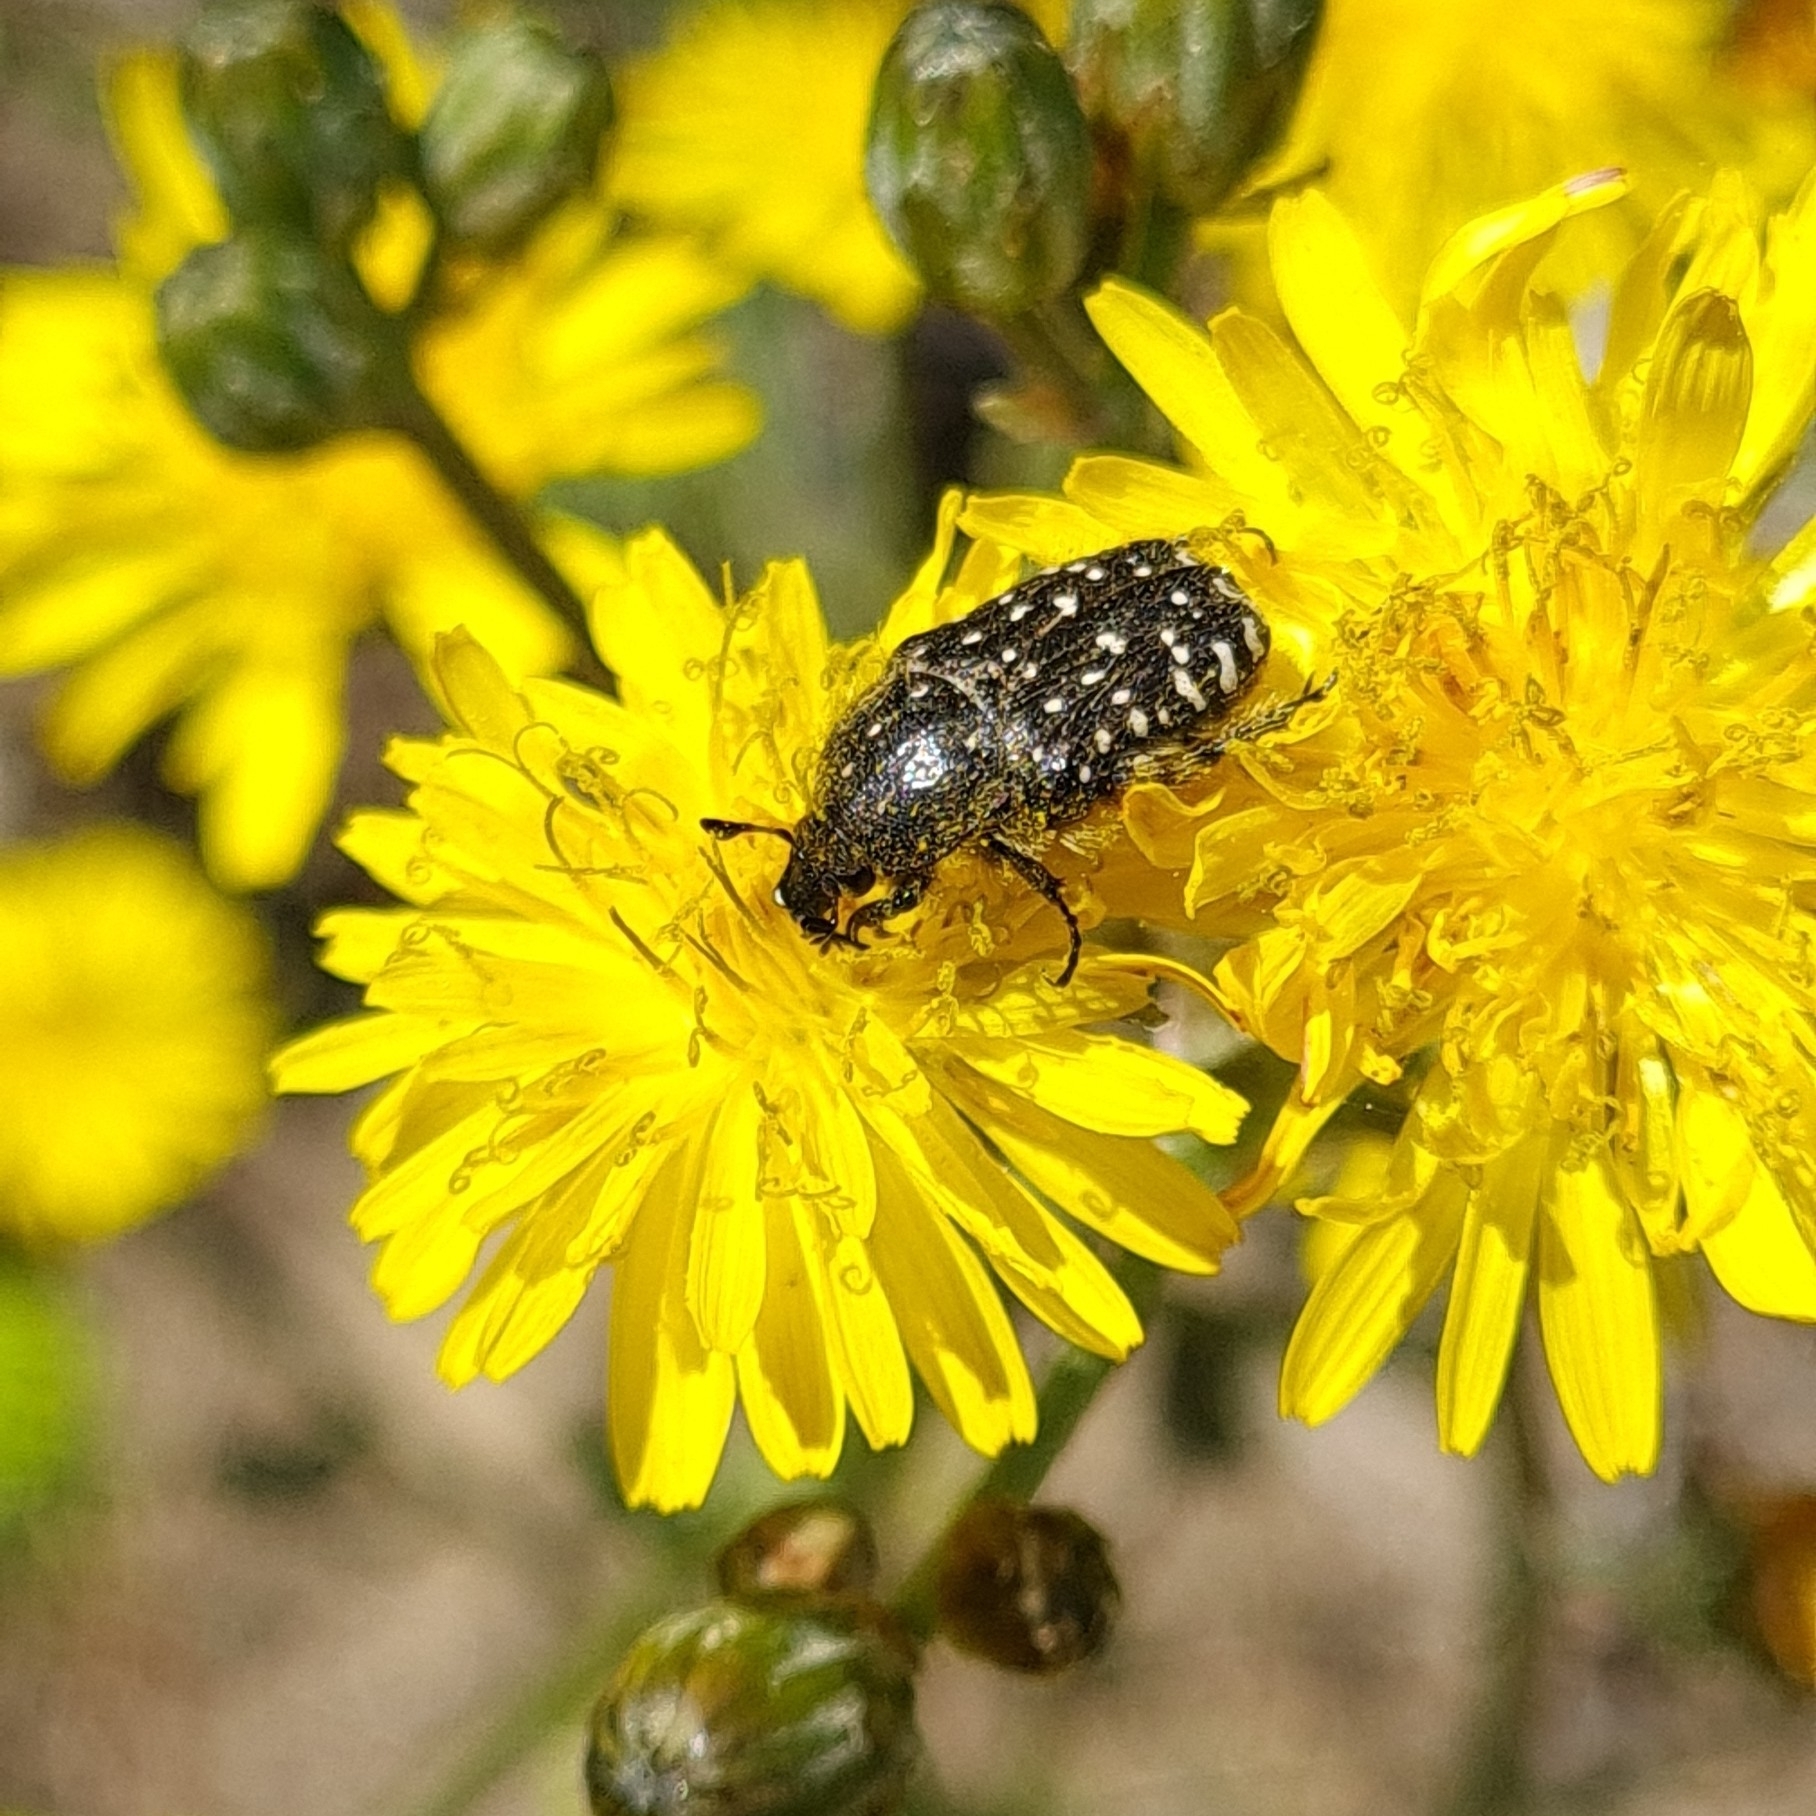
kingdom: Animalia
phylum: Arthropoda
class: Insecta
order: Coleoptera
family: Scarabaeidae
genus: Oxythyrea
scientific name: Oxythyrea funesta
